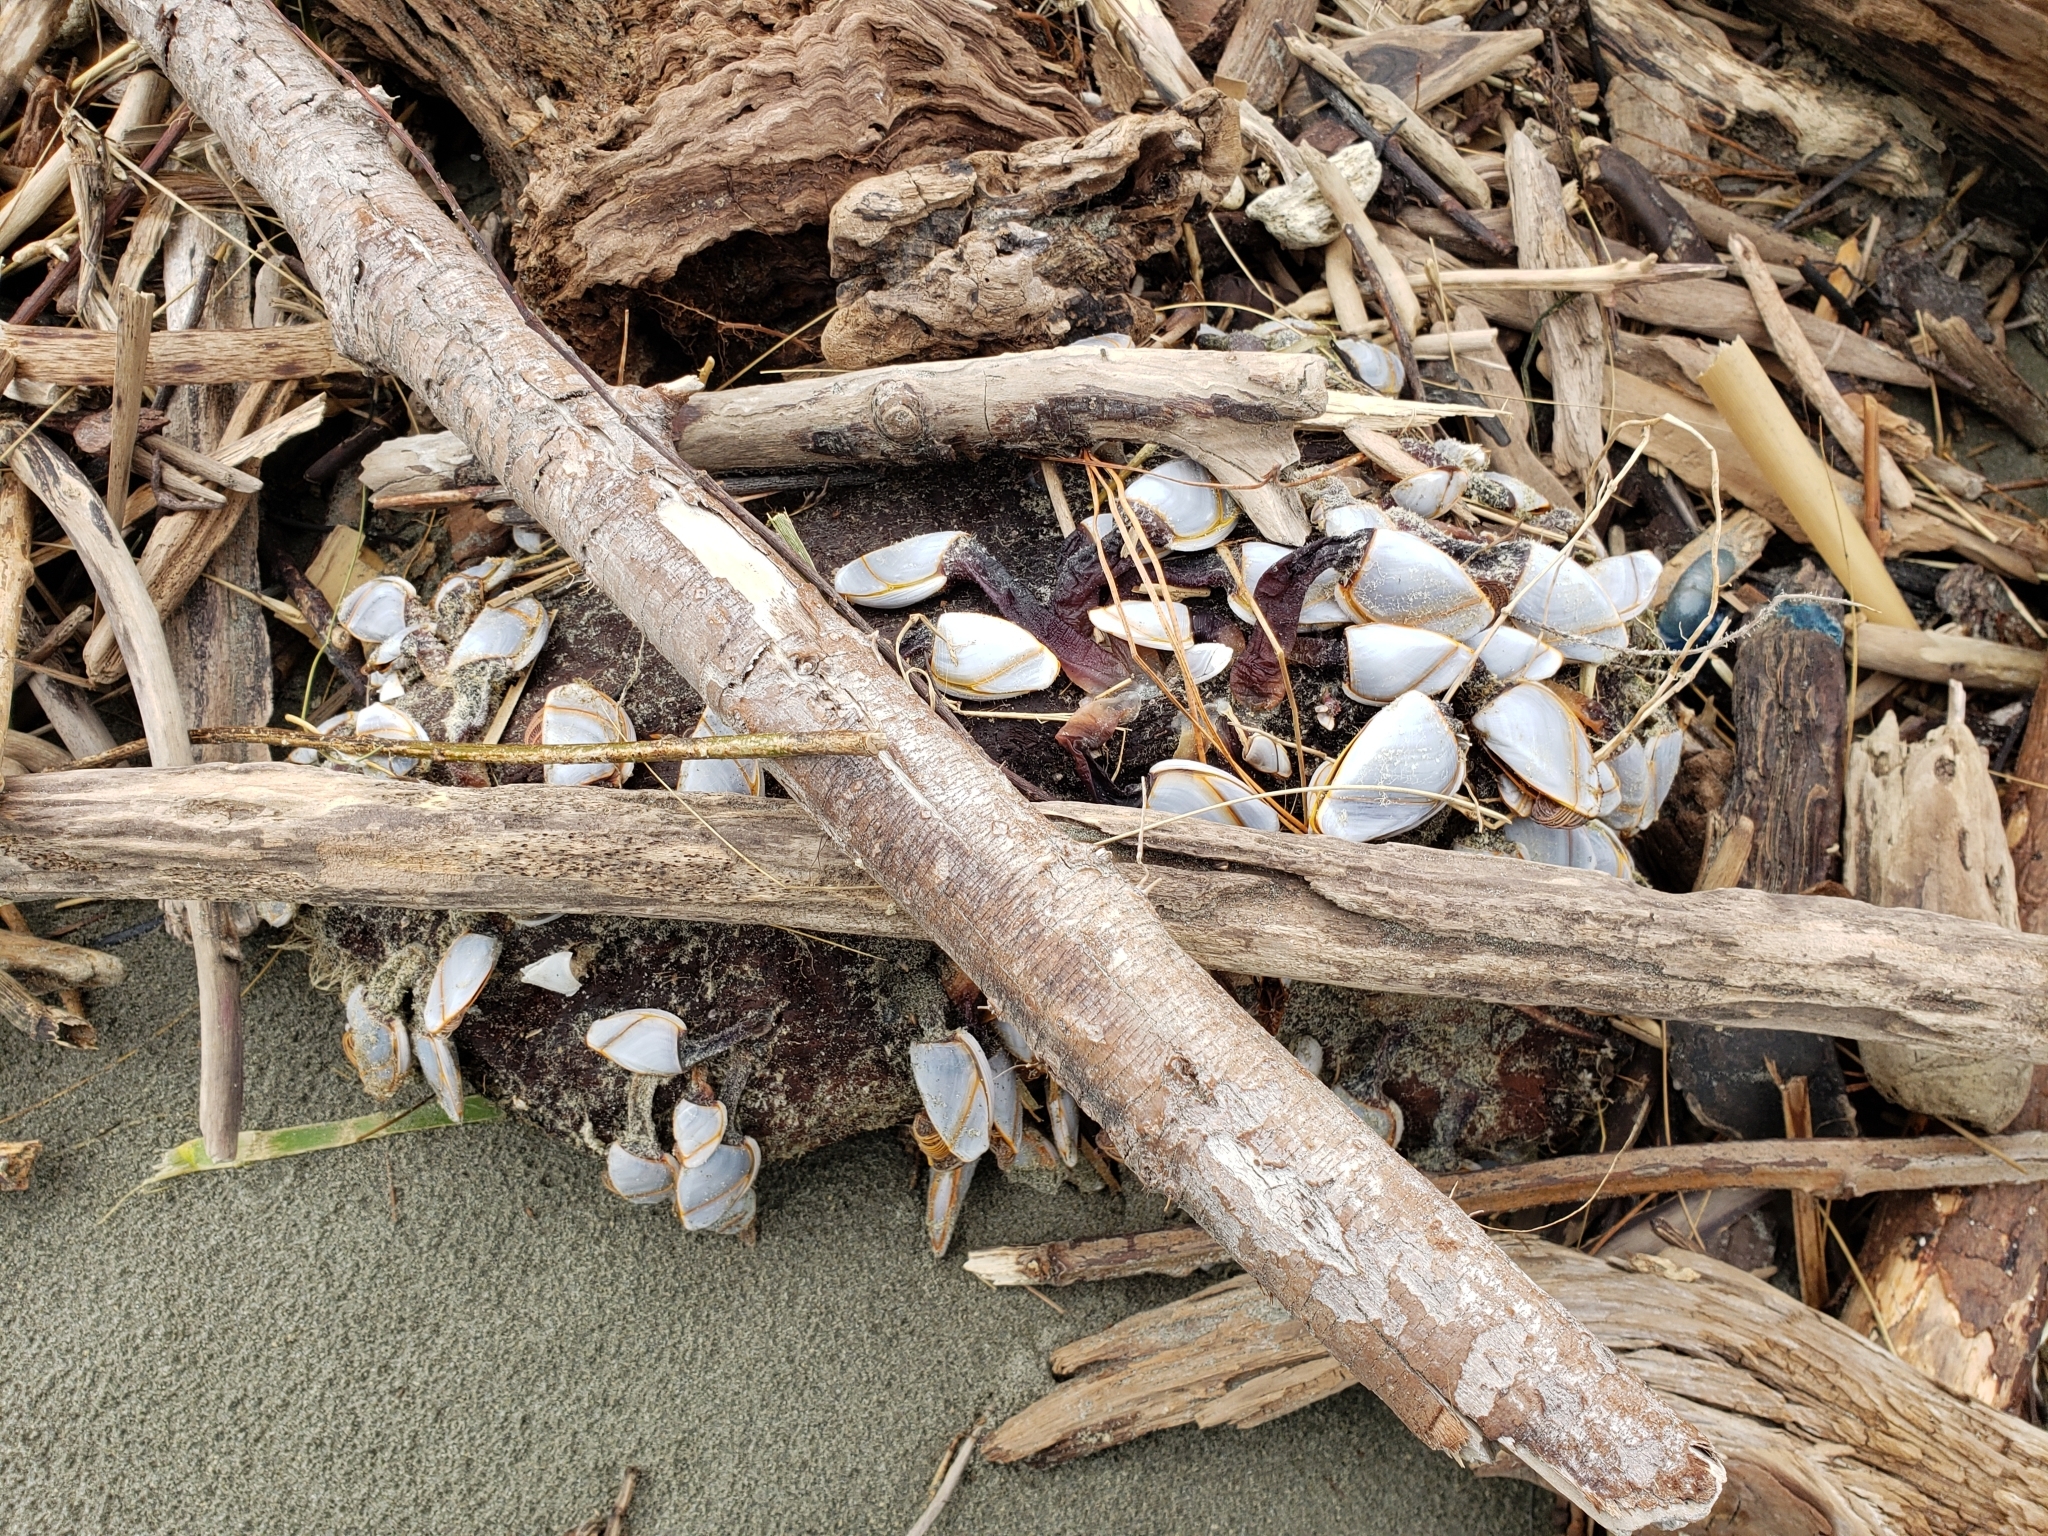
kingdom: Animalia
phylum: Arthropoda
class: Maxillopoda
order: Pedunculata
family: Lepadidae
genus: Lepas
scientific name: Lepas anatifera
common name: Common goose barnacle
